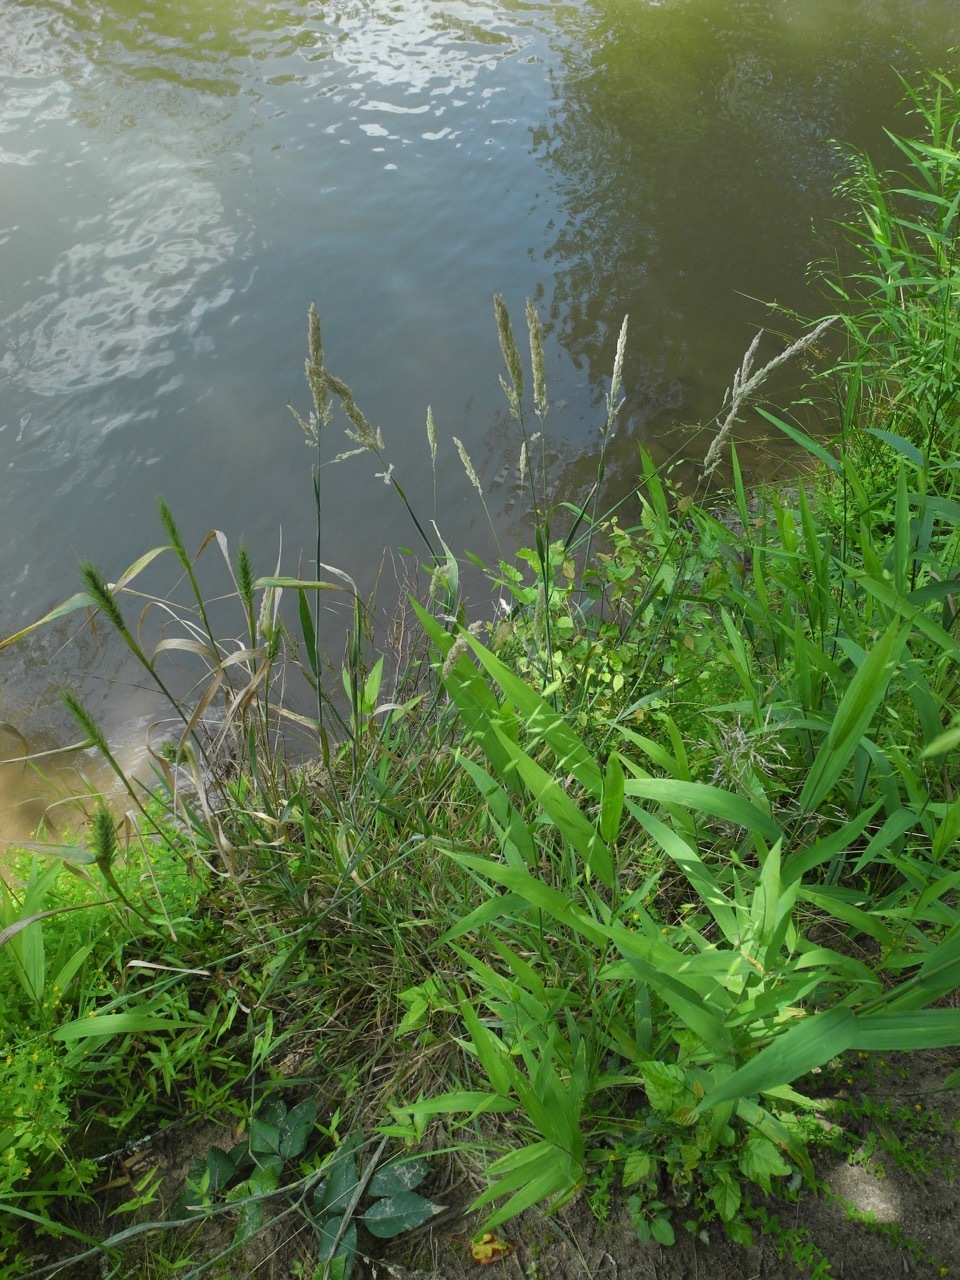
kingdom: Plantae
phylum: Tracheophyta
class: Liliopsida
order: Poales
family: Poaceae
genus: Holcus
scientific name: Holcus lanatus
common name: Yorkshire-fog
